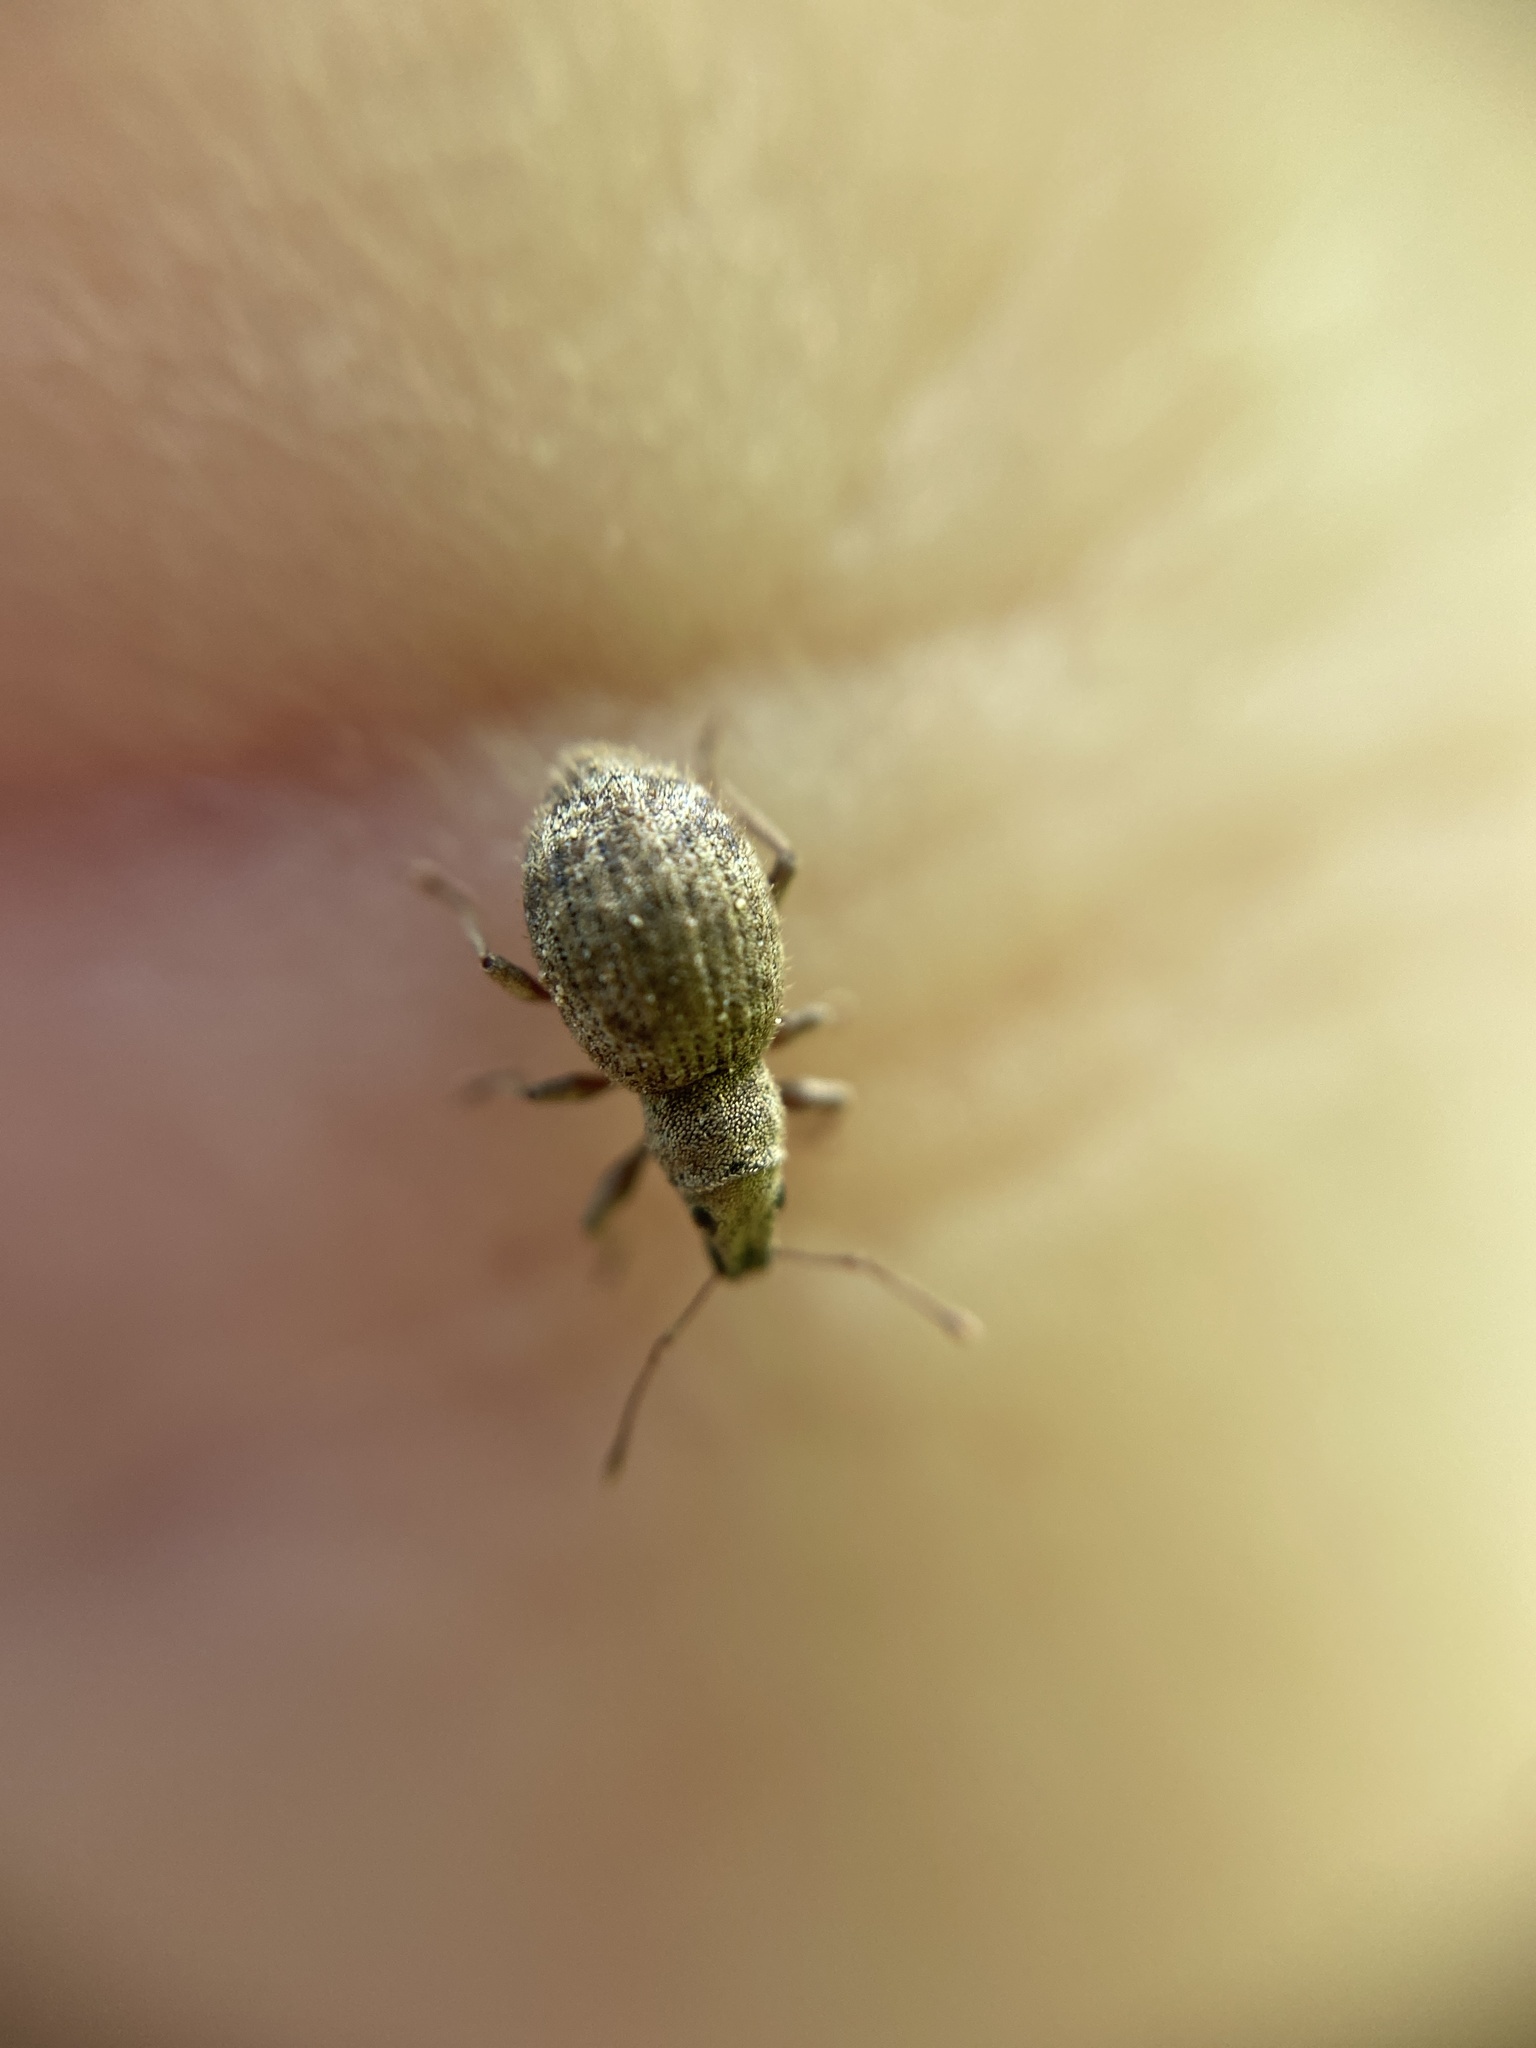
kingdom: Animalia
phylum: Arthropoda
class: Insecta
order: Coleoptera
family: Curculionidae
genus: Sciaphilus
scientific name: Sciaphilus asperatus
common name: Weevil
